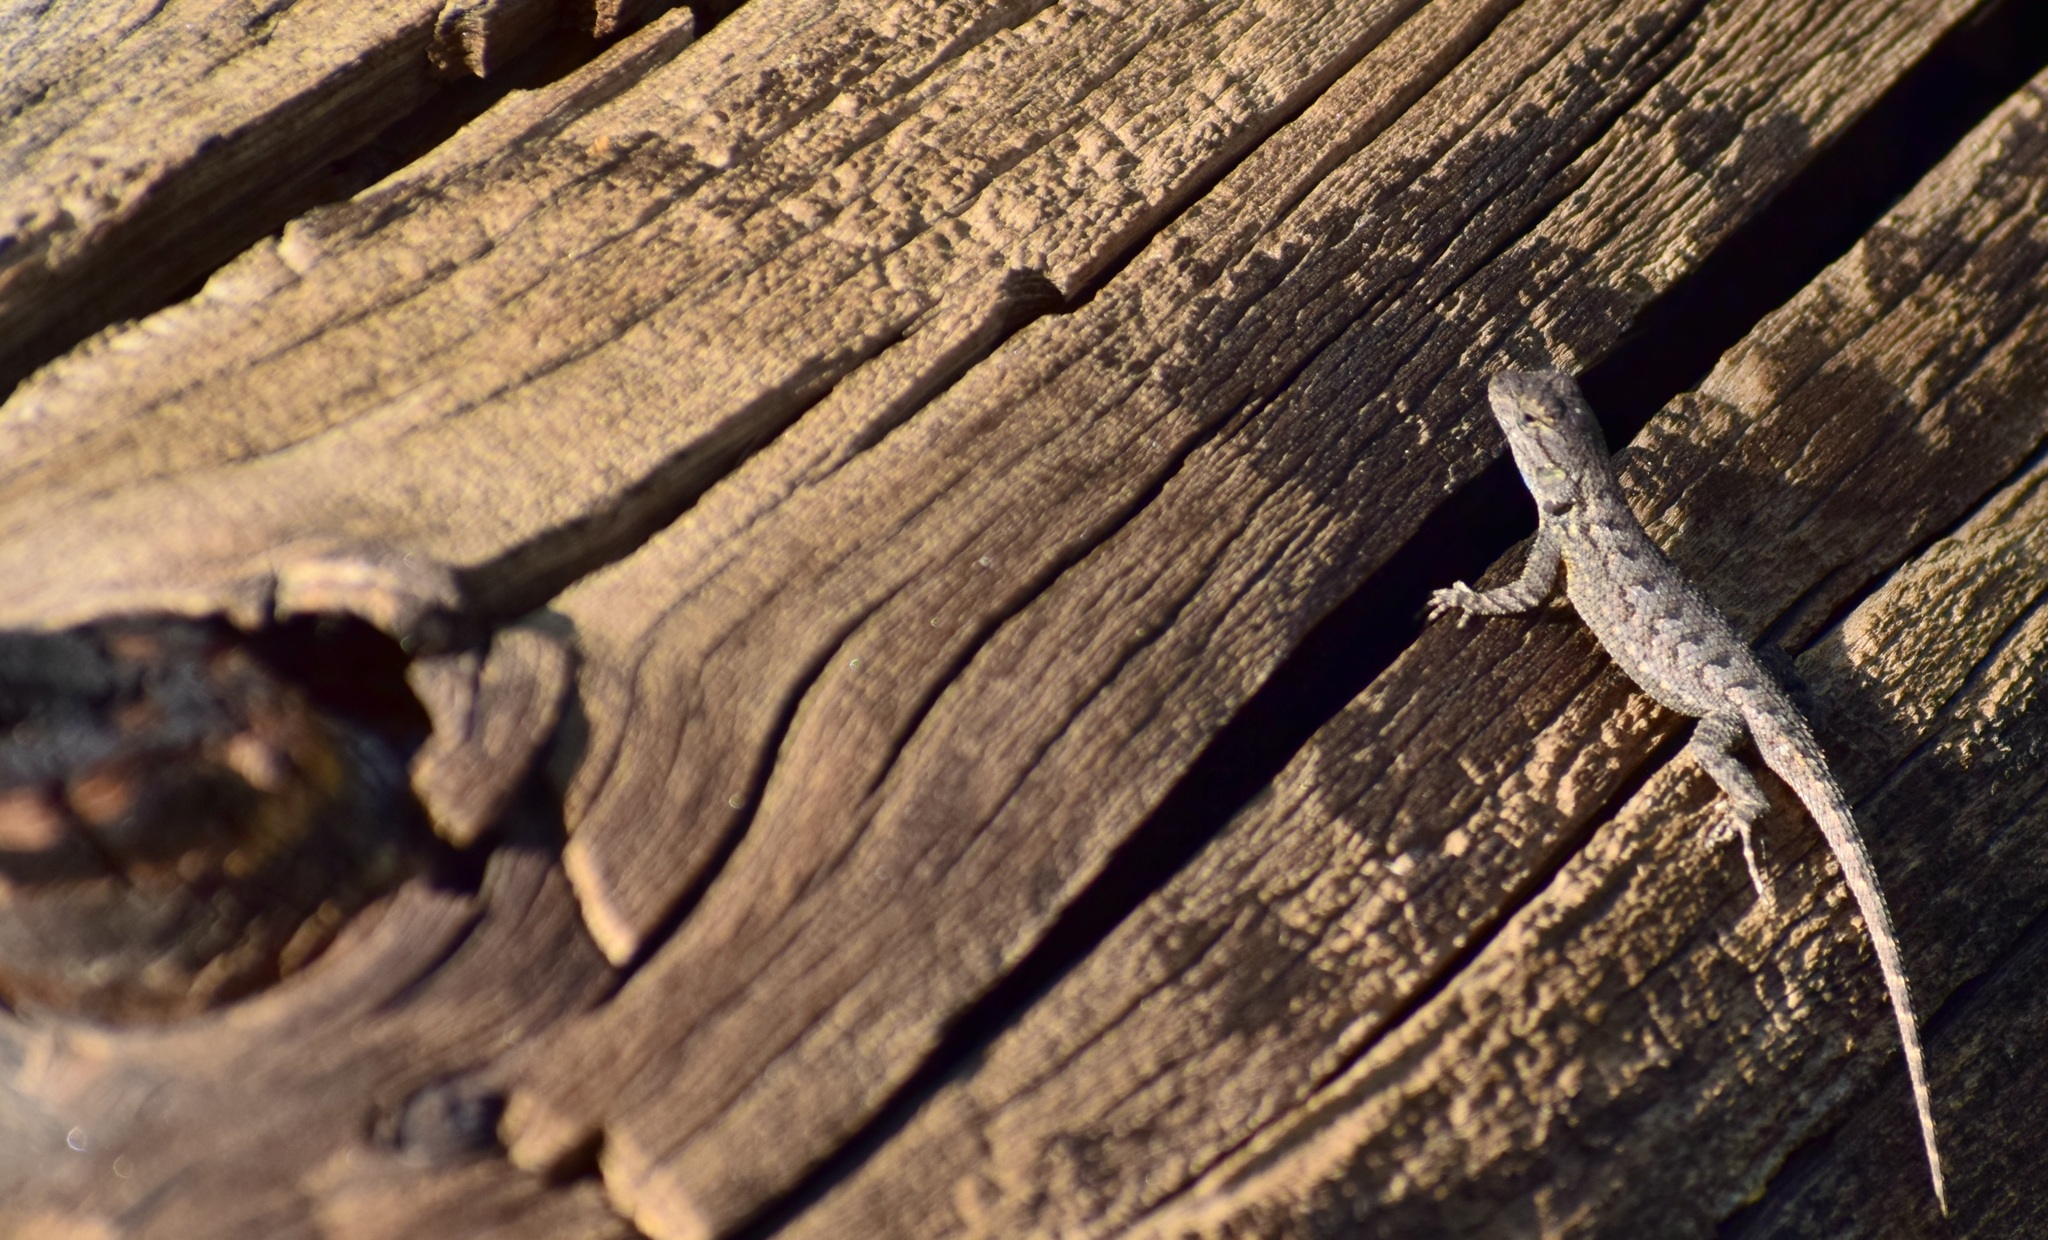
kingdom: Animalia
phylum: Chordata
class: Squamata
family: Phrynosomatidae
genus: Sceloporus
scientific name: Sceloporus occidentalis
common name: Western fence lizard
